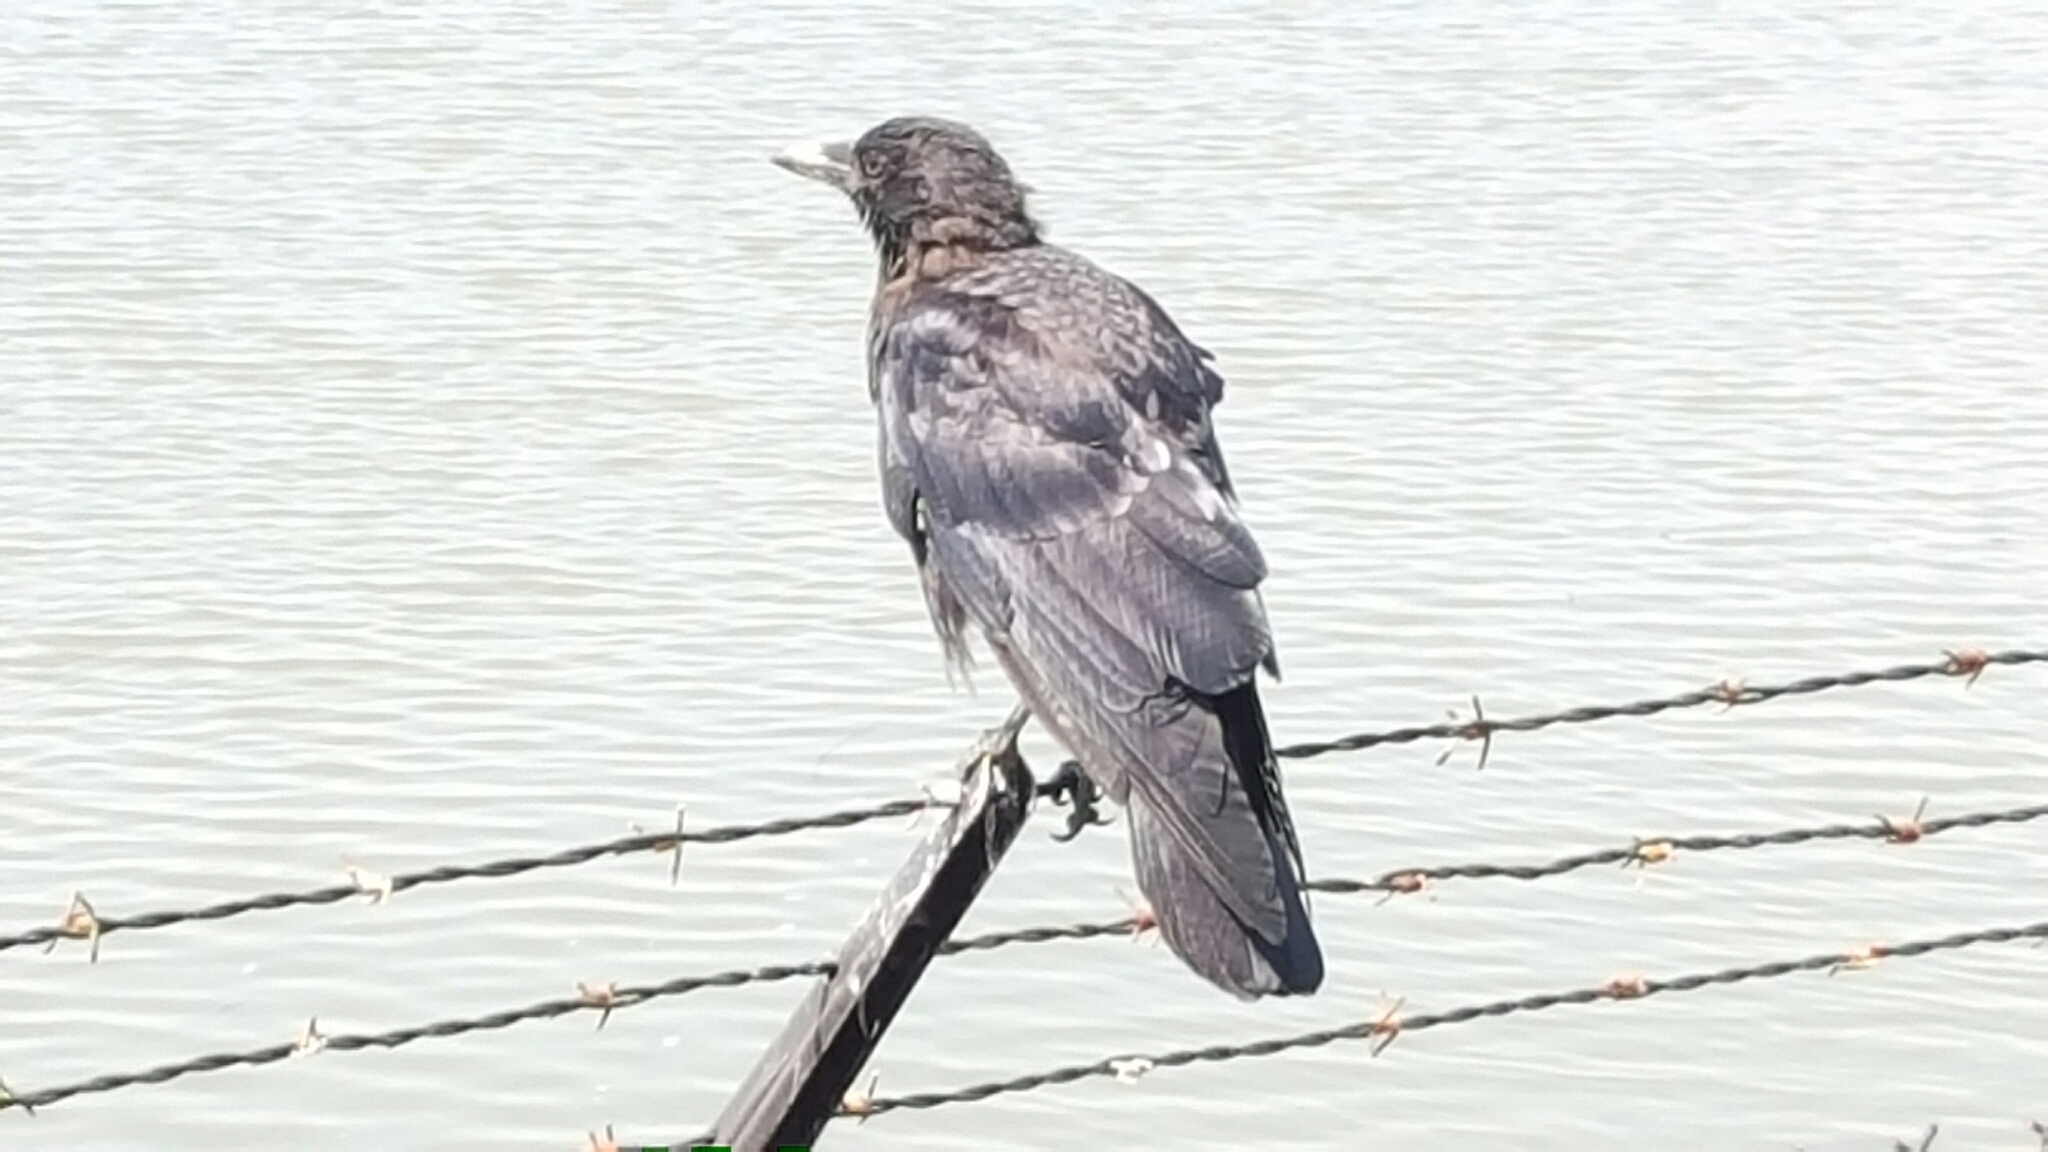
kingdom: Animalia
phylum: Chordata
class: Aves
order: Passeriformes
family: Corvidae
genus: Corvus
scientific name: Corvus brachyrhynchos
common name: American crow
